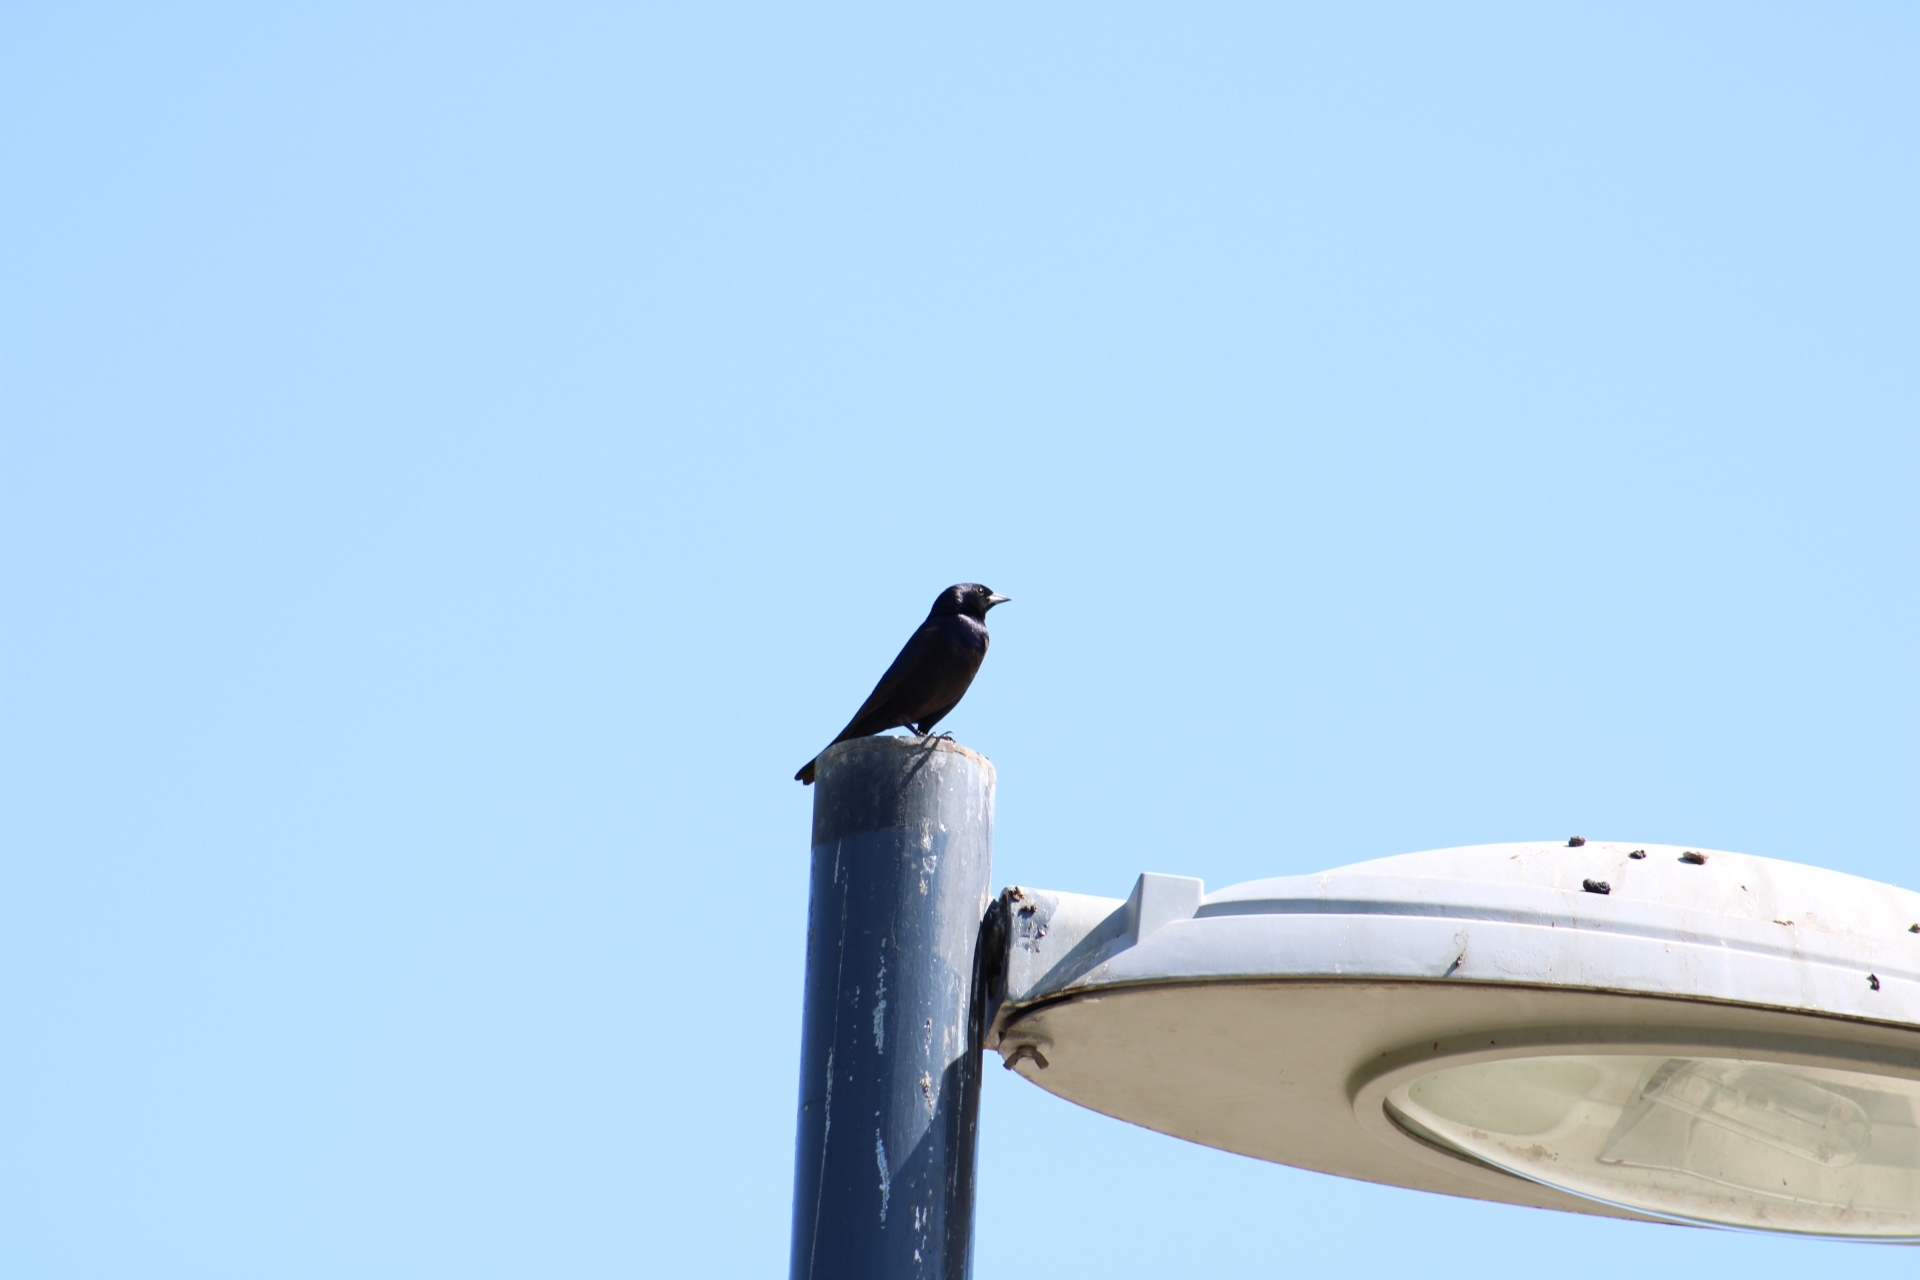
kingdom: Animalia
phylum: Chordata
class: Aves
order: Passeriformes
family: Icteridae
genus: Molothrus
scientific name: Molothrus bonariensis
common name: Shiny cowbird
